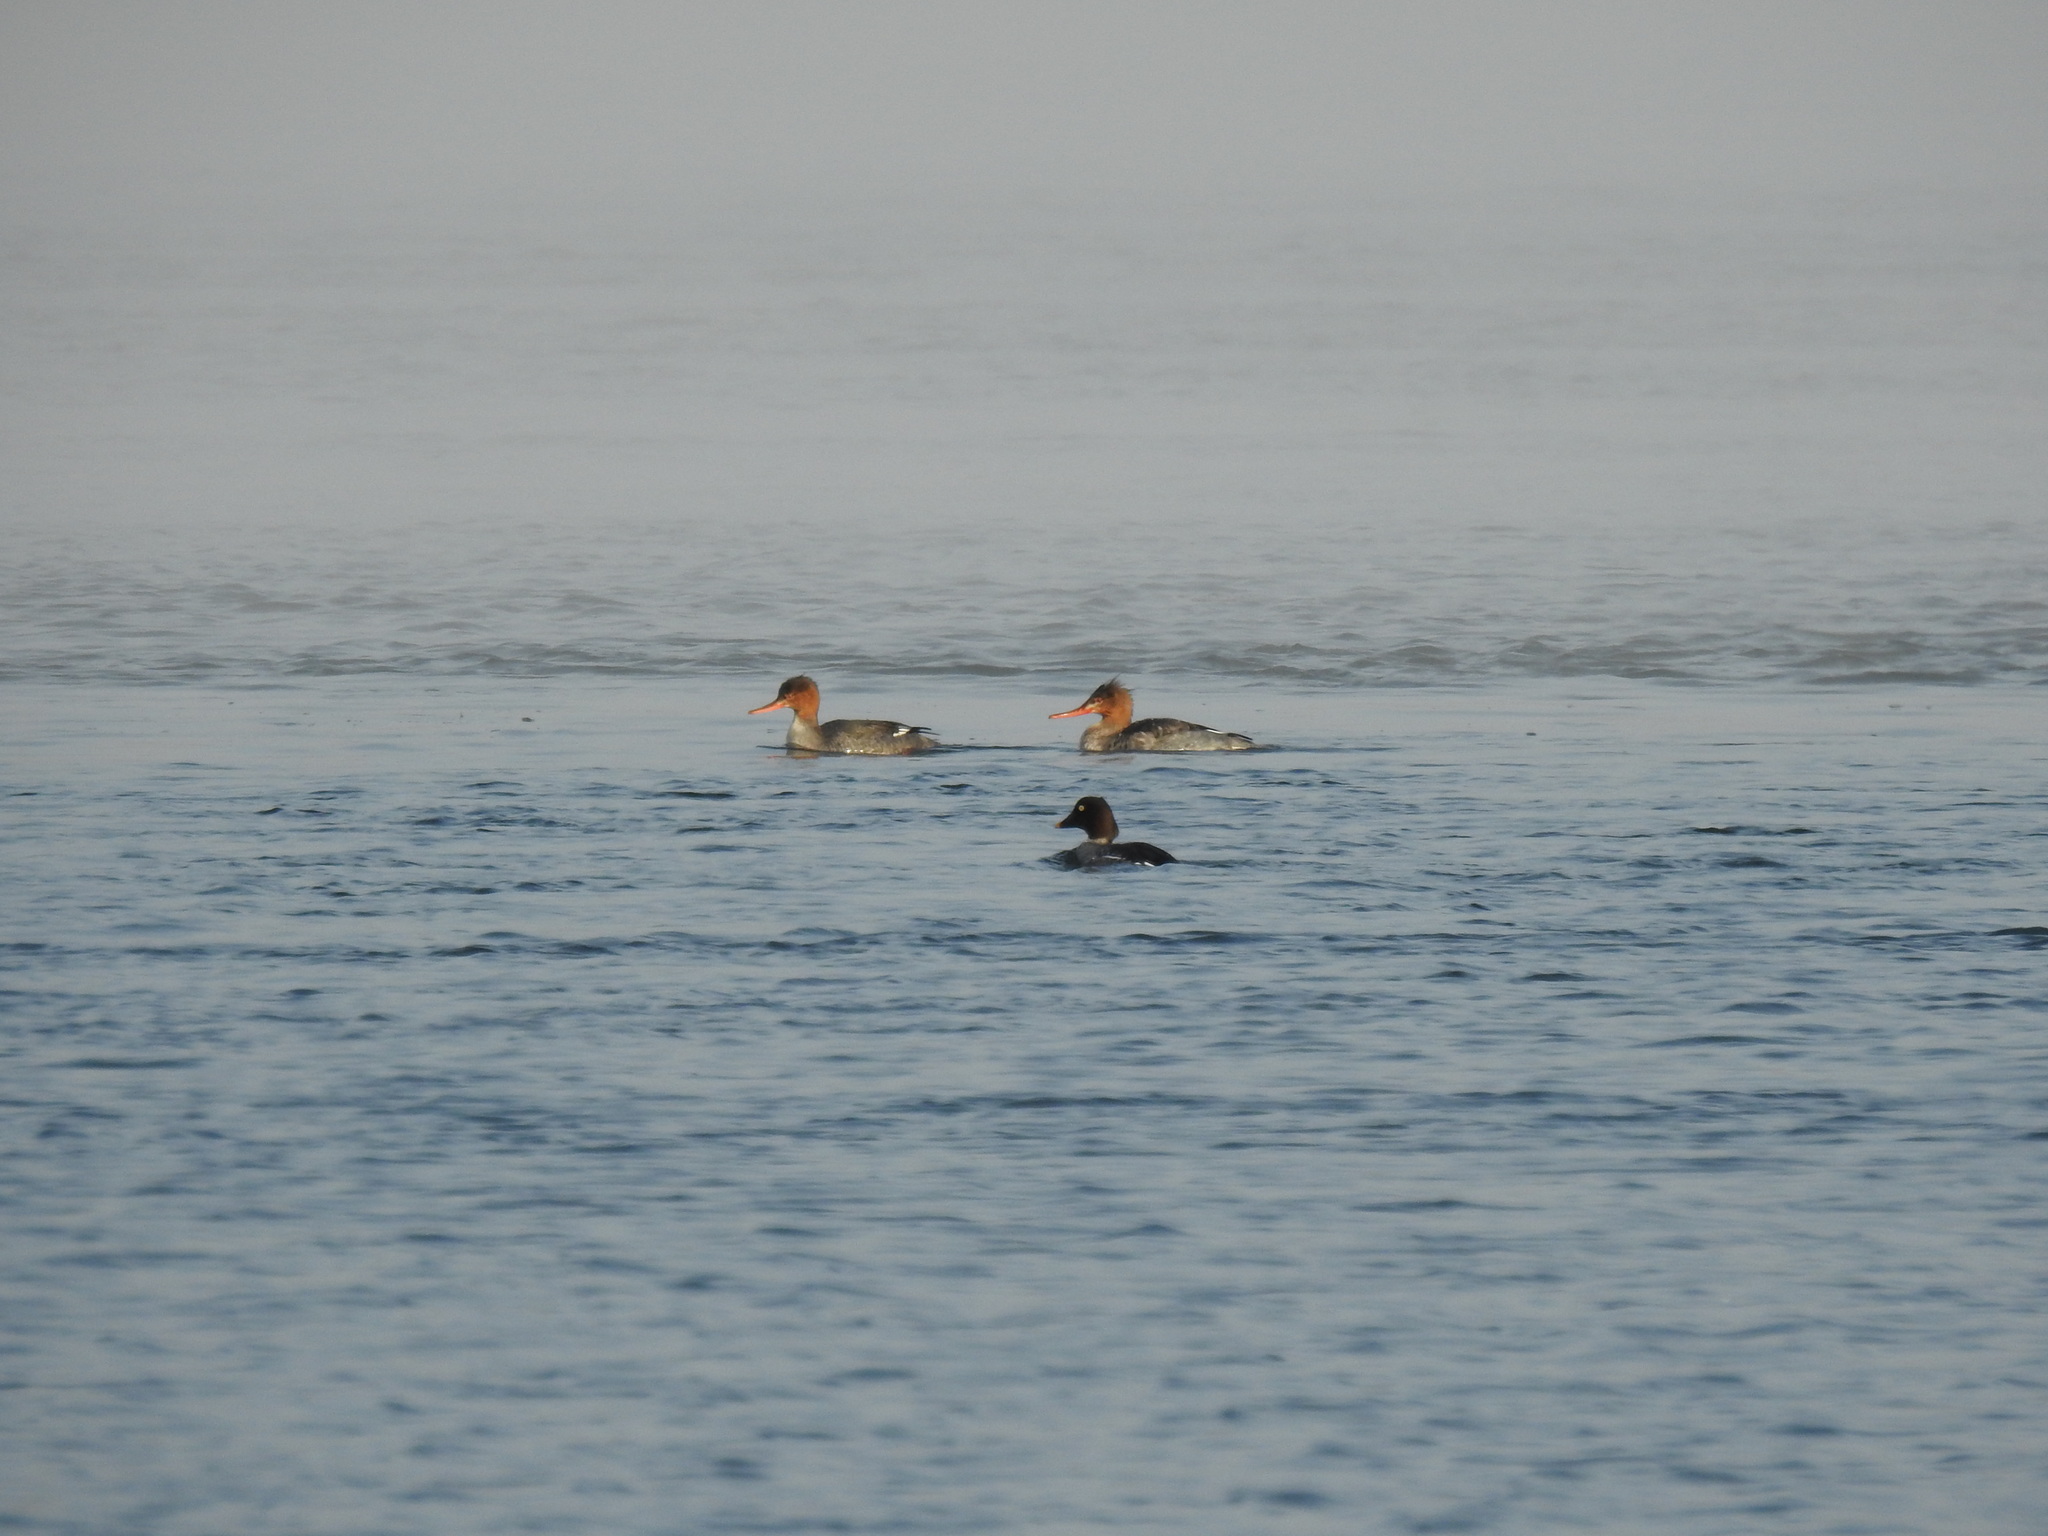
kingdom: Animalia
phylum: Chordata
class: Aves
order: Anseriformes
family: Anatidae
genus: Mergus
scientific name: Mergus serrator
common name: Red-breasted merganser
